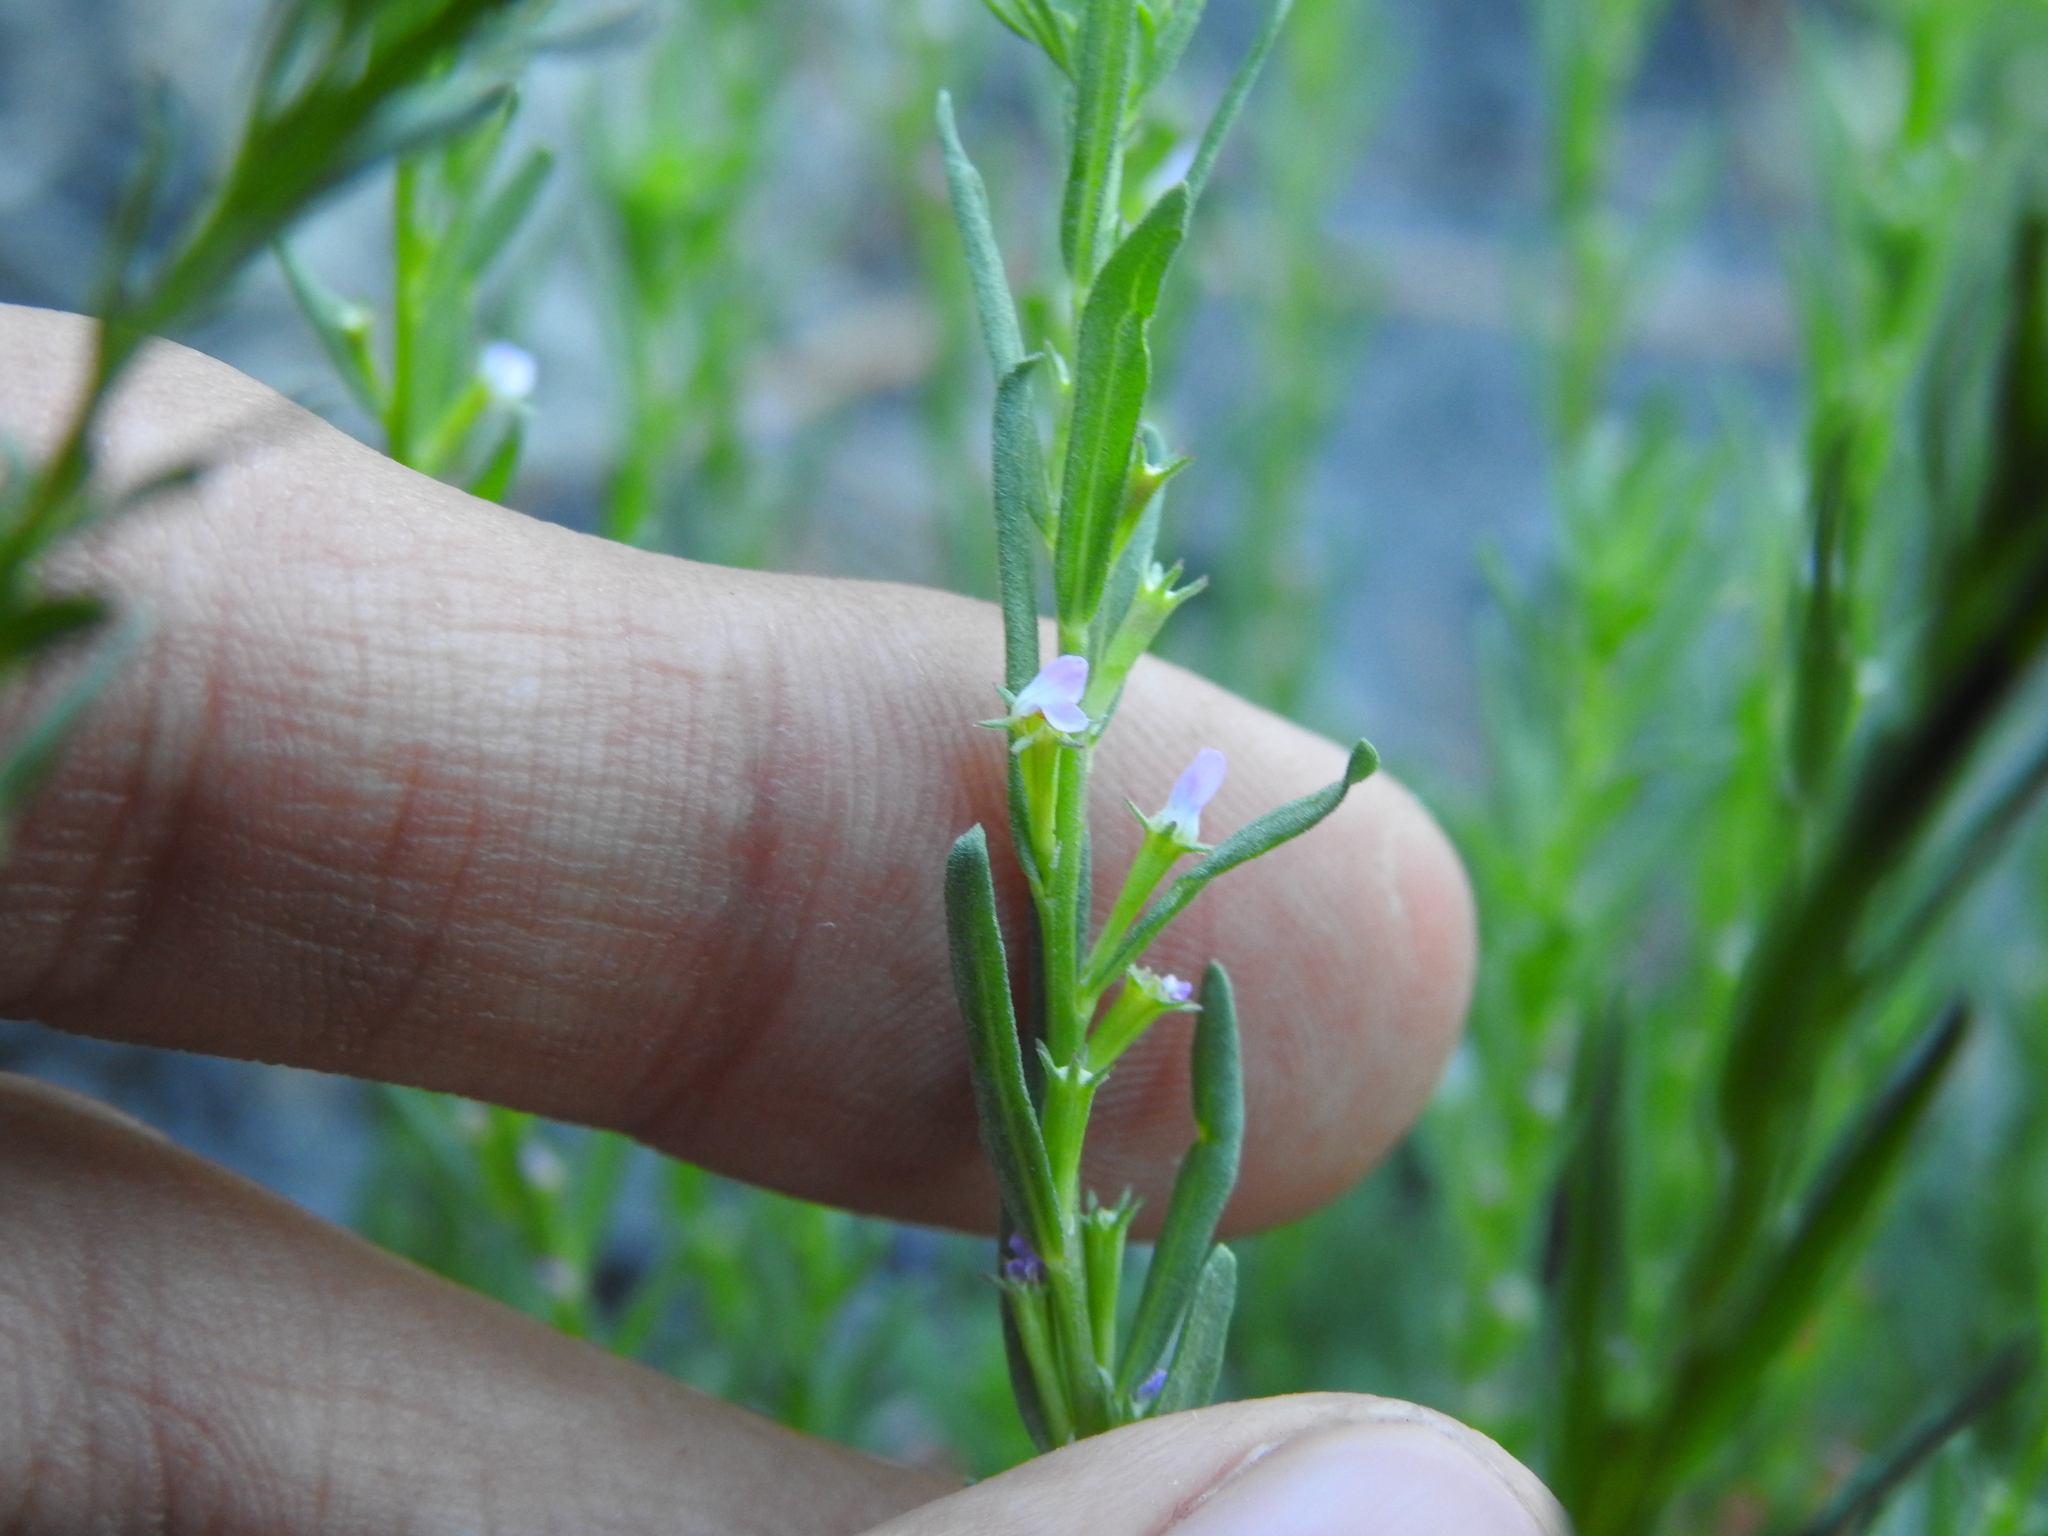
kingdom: Plantae
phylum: Tracheophyta
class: Magnoliopsida
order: Myrtales
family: Lythraceae
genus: Lythrum
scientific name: Lythrum hyssopifolia
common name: Grass-poly
